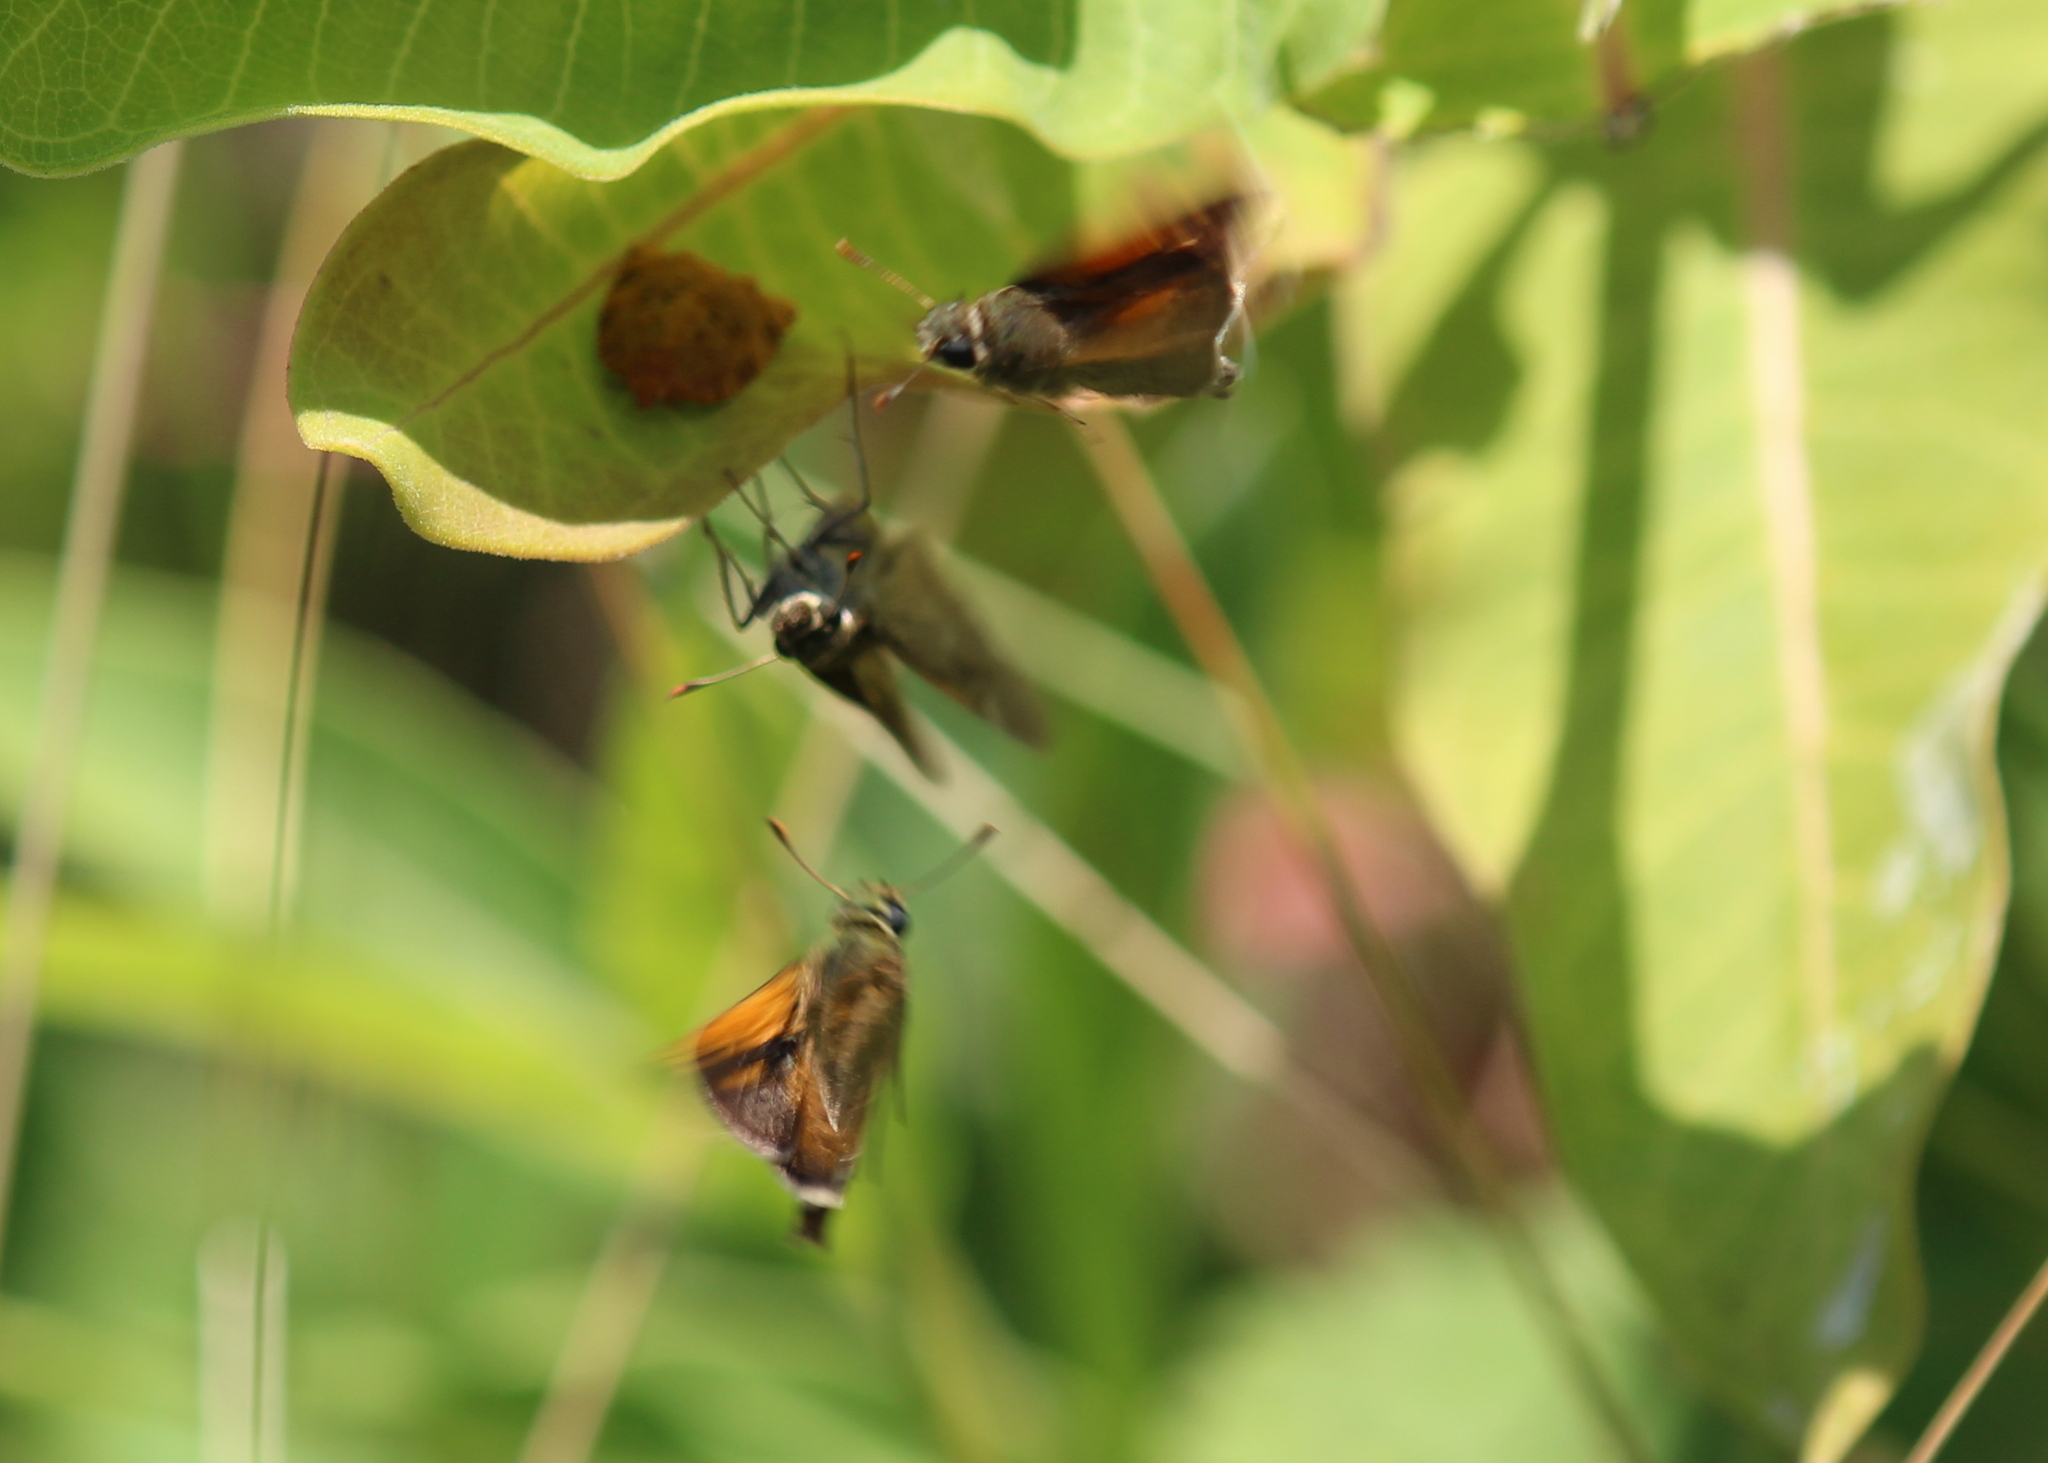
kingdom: Animalia
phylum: Arthropoda
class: Insecta
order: Lepidoptera
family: Hesperiidae
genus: Polites
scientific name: Polites themistocles
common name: Tawny-edged skipper
